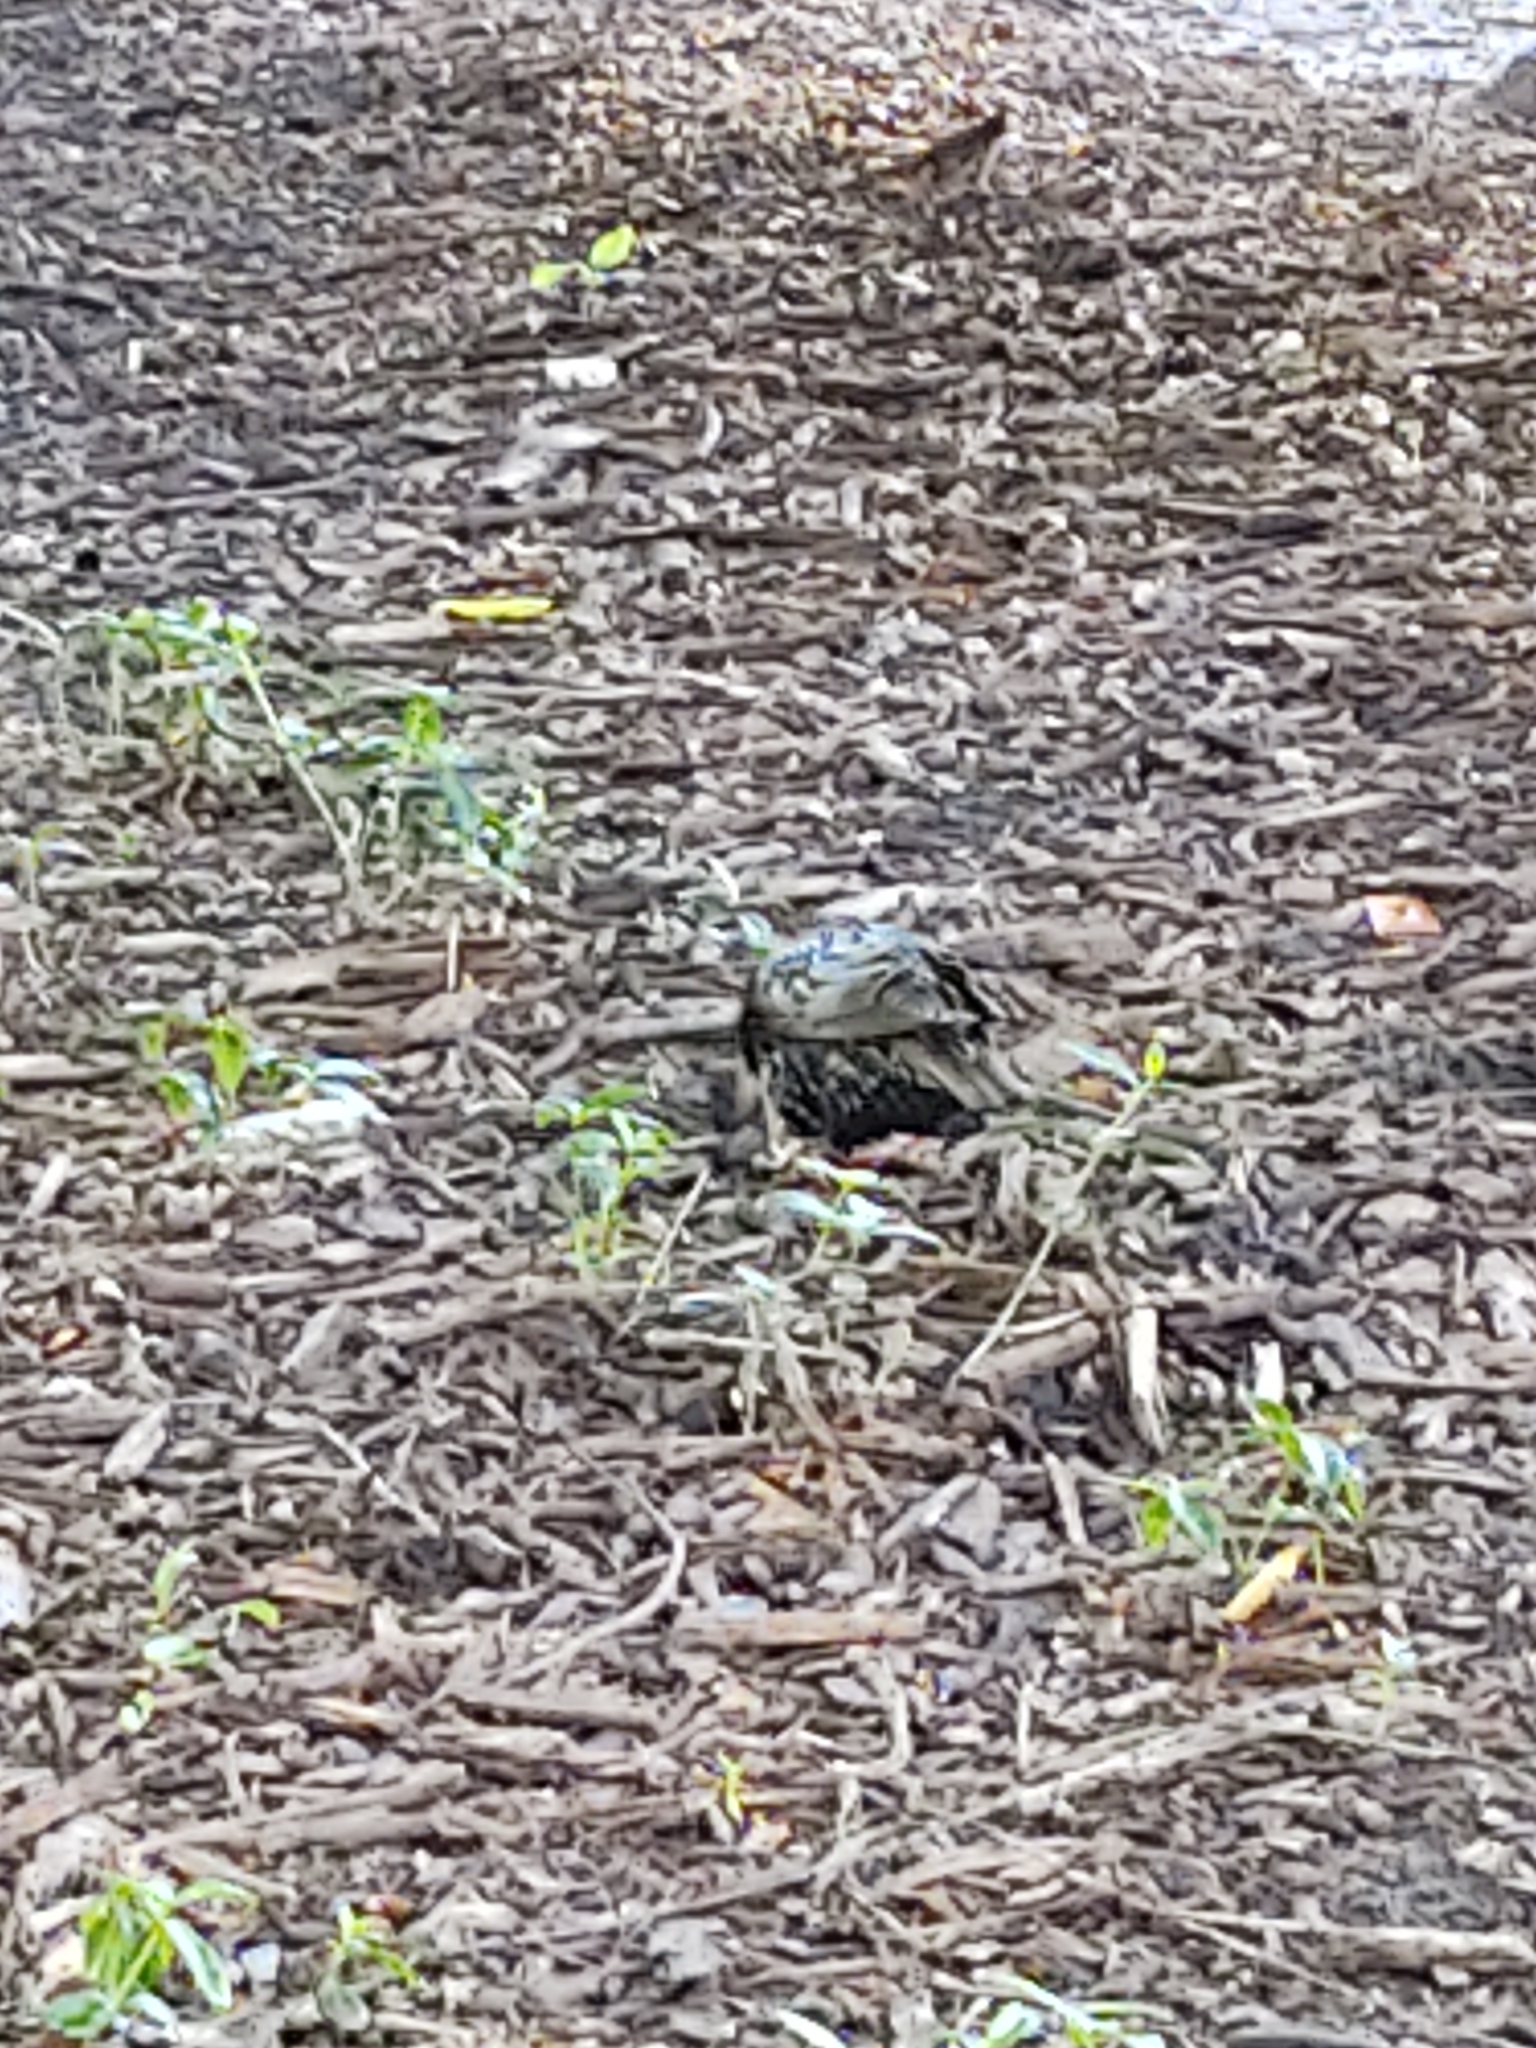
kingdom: Animalia
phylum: Chordata
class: Aves
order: Passeriformes
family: Sturnidae
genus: Sturnus
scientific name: Sturnus vulgaris
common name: Common starling
